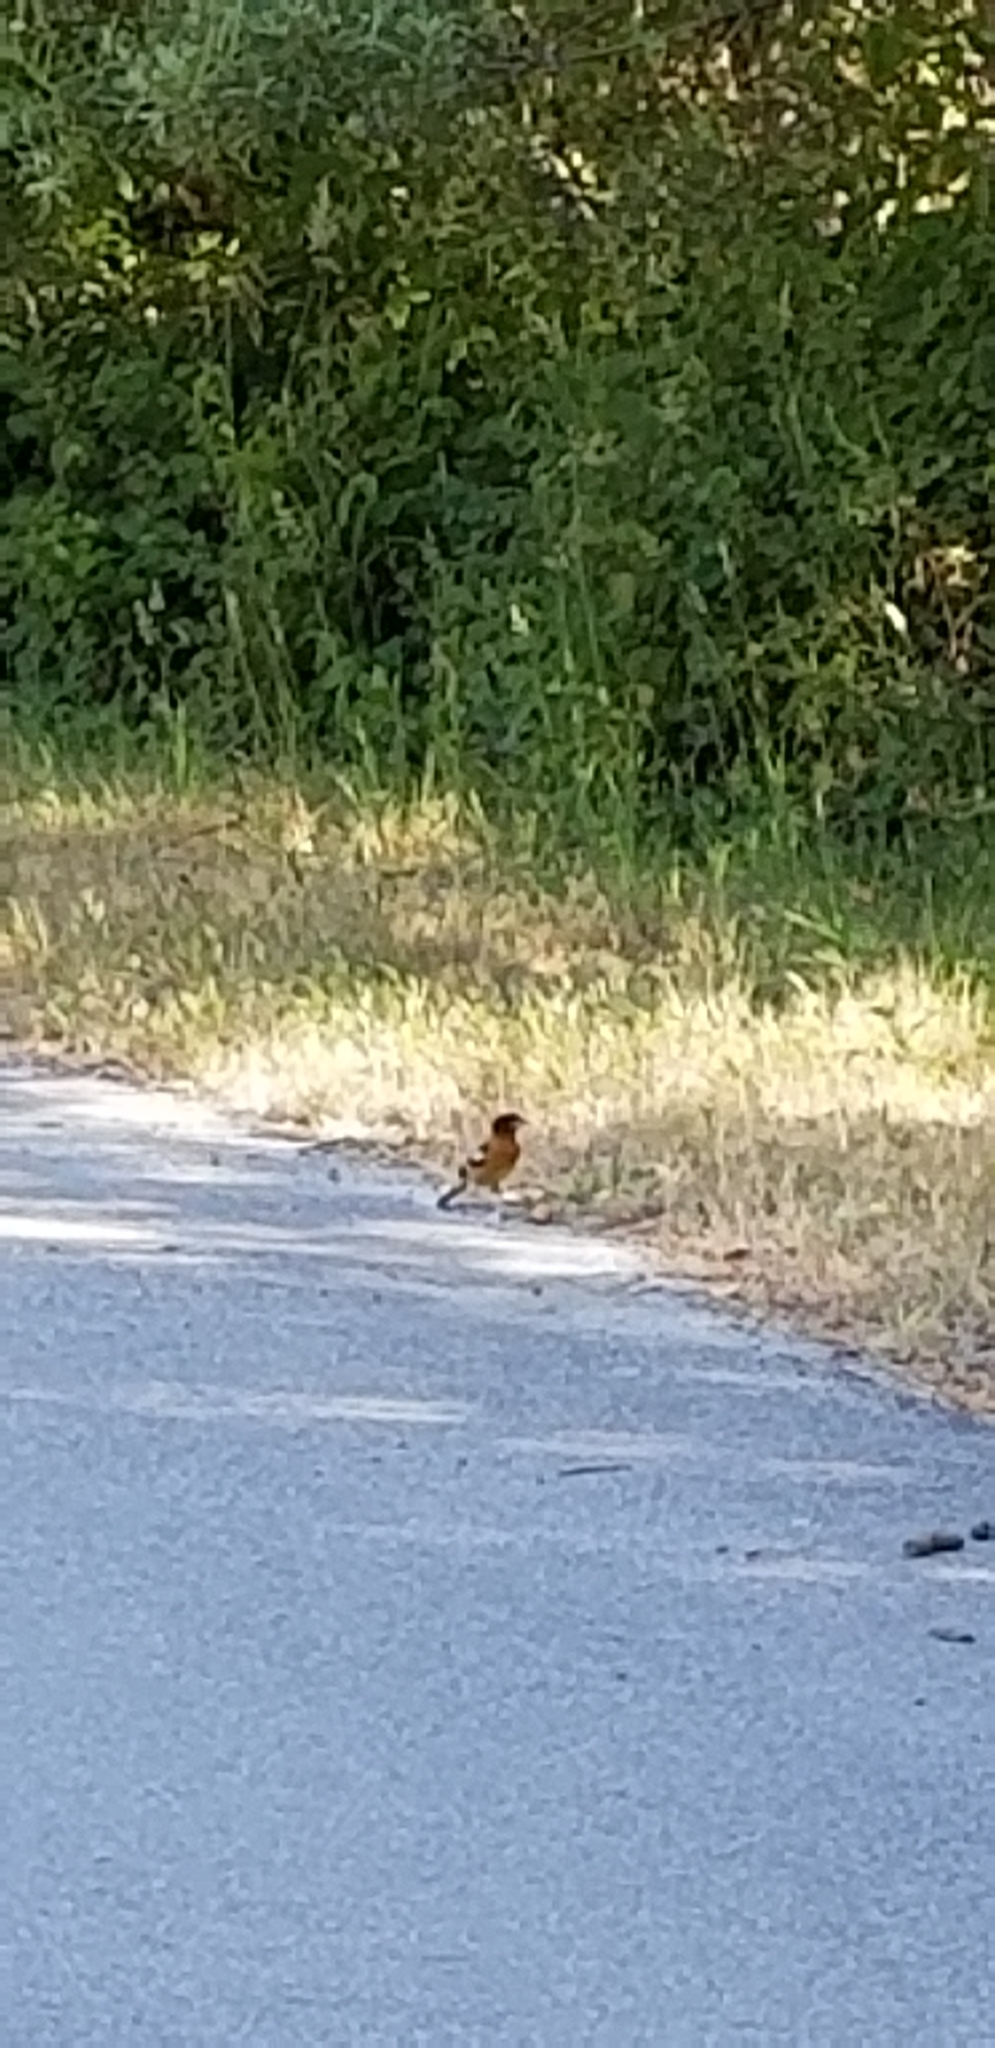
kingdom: Animalia
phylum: Chordata
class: Aves
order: Passeriformes
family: Cardinalidae
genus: Pheucticus
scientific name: Pheucticus melanocephalus
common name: Black-headed grosbeak
